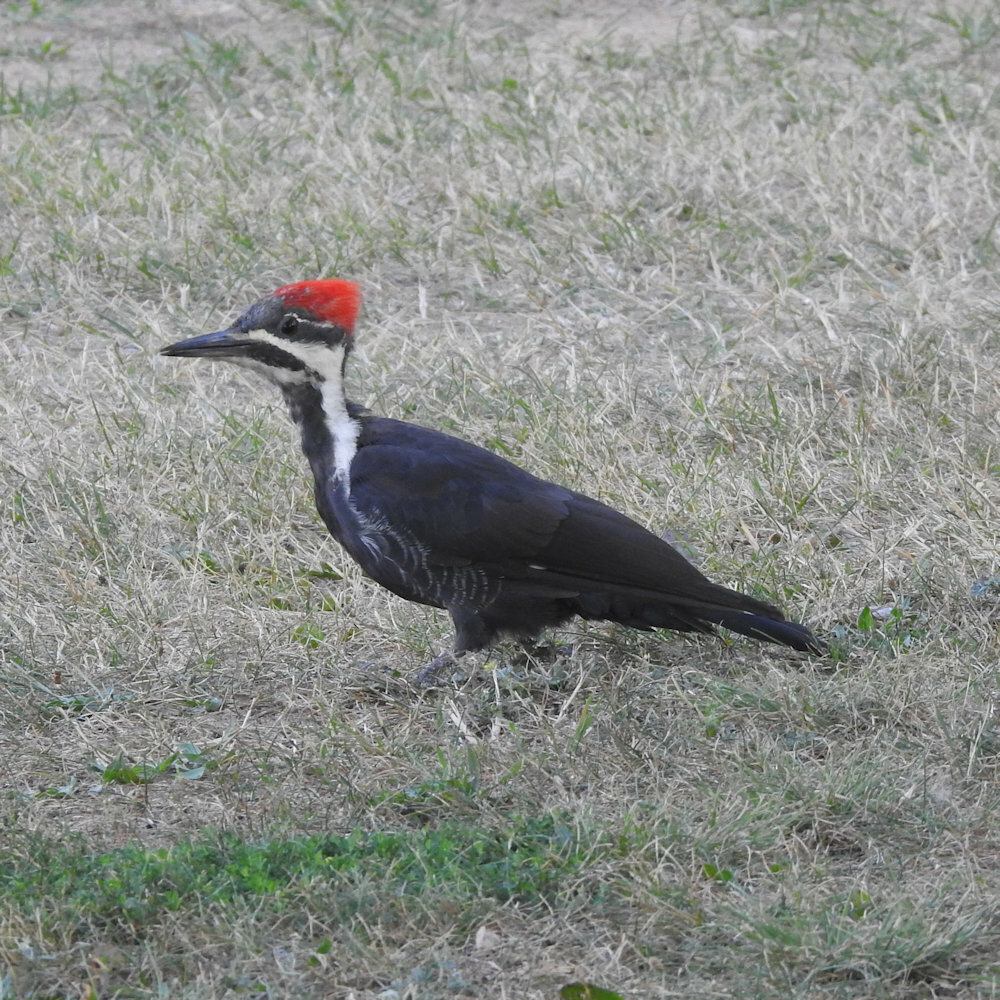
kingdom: Animalia
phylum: Chordata
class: Aves
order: Piciformes
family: Picidae
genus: Dryocopus
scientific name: Dryocopus pileatus
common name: Pileated woodpecker
